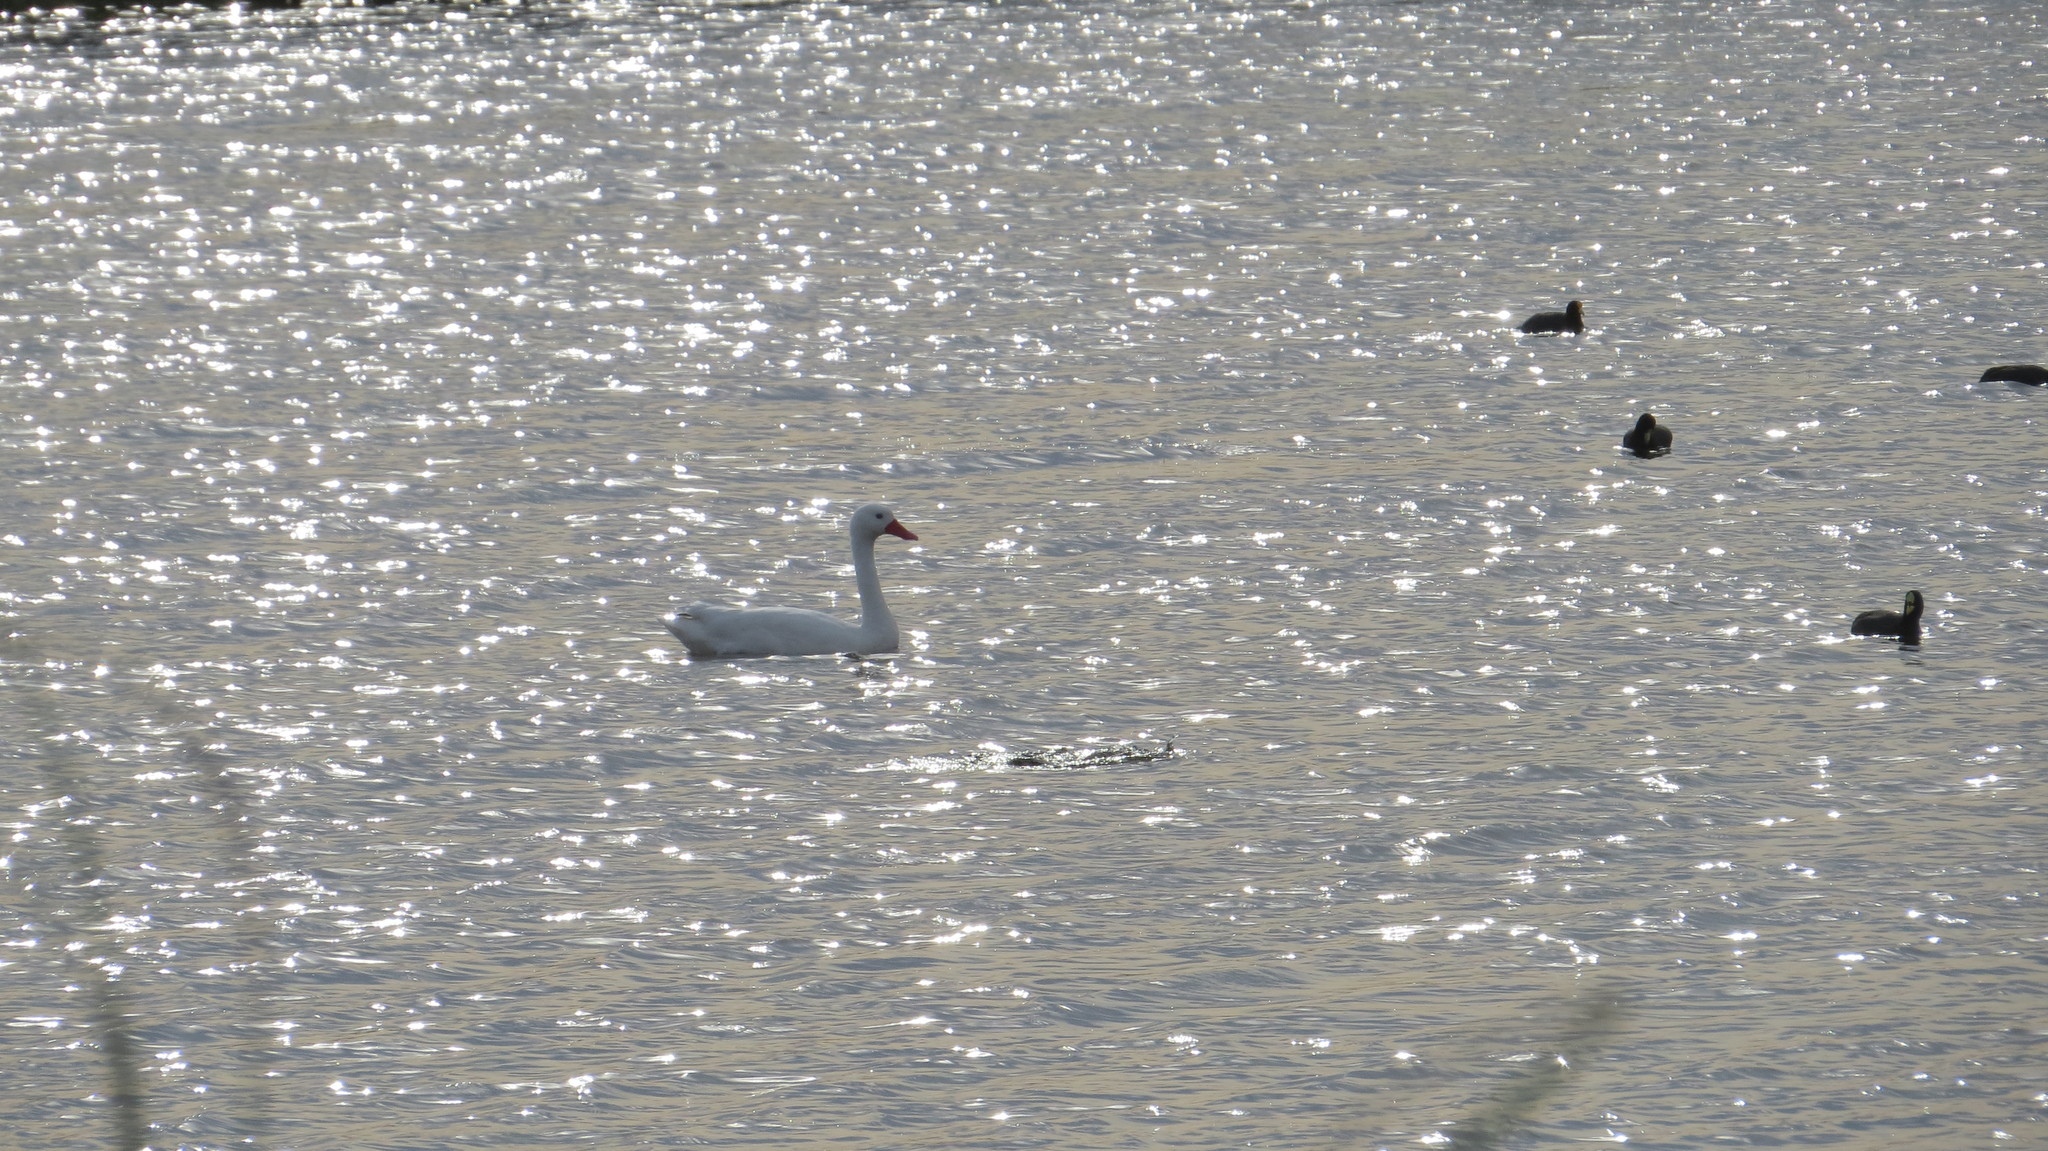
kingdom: Animalia
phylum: Chordata
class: Aves
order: Anseriformes
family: Anatidae
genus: Coscoroba
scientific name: Coscoroba coscoroba
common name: Coscoroba swan
